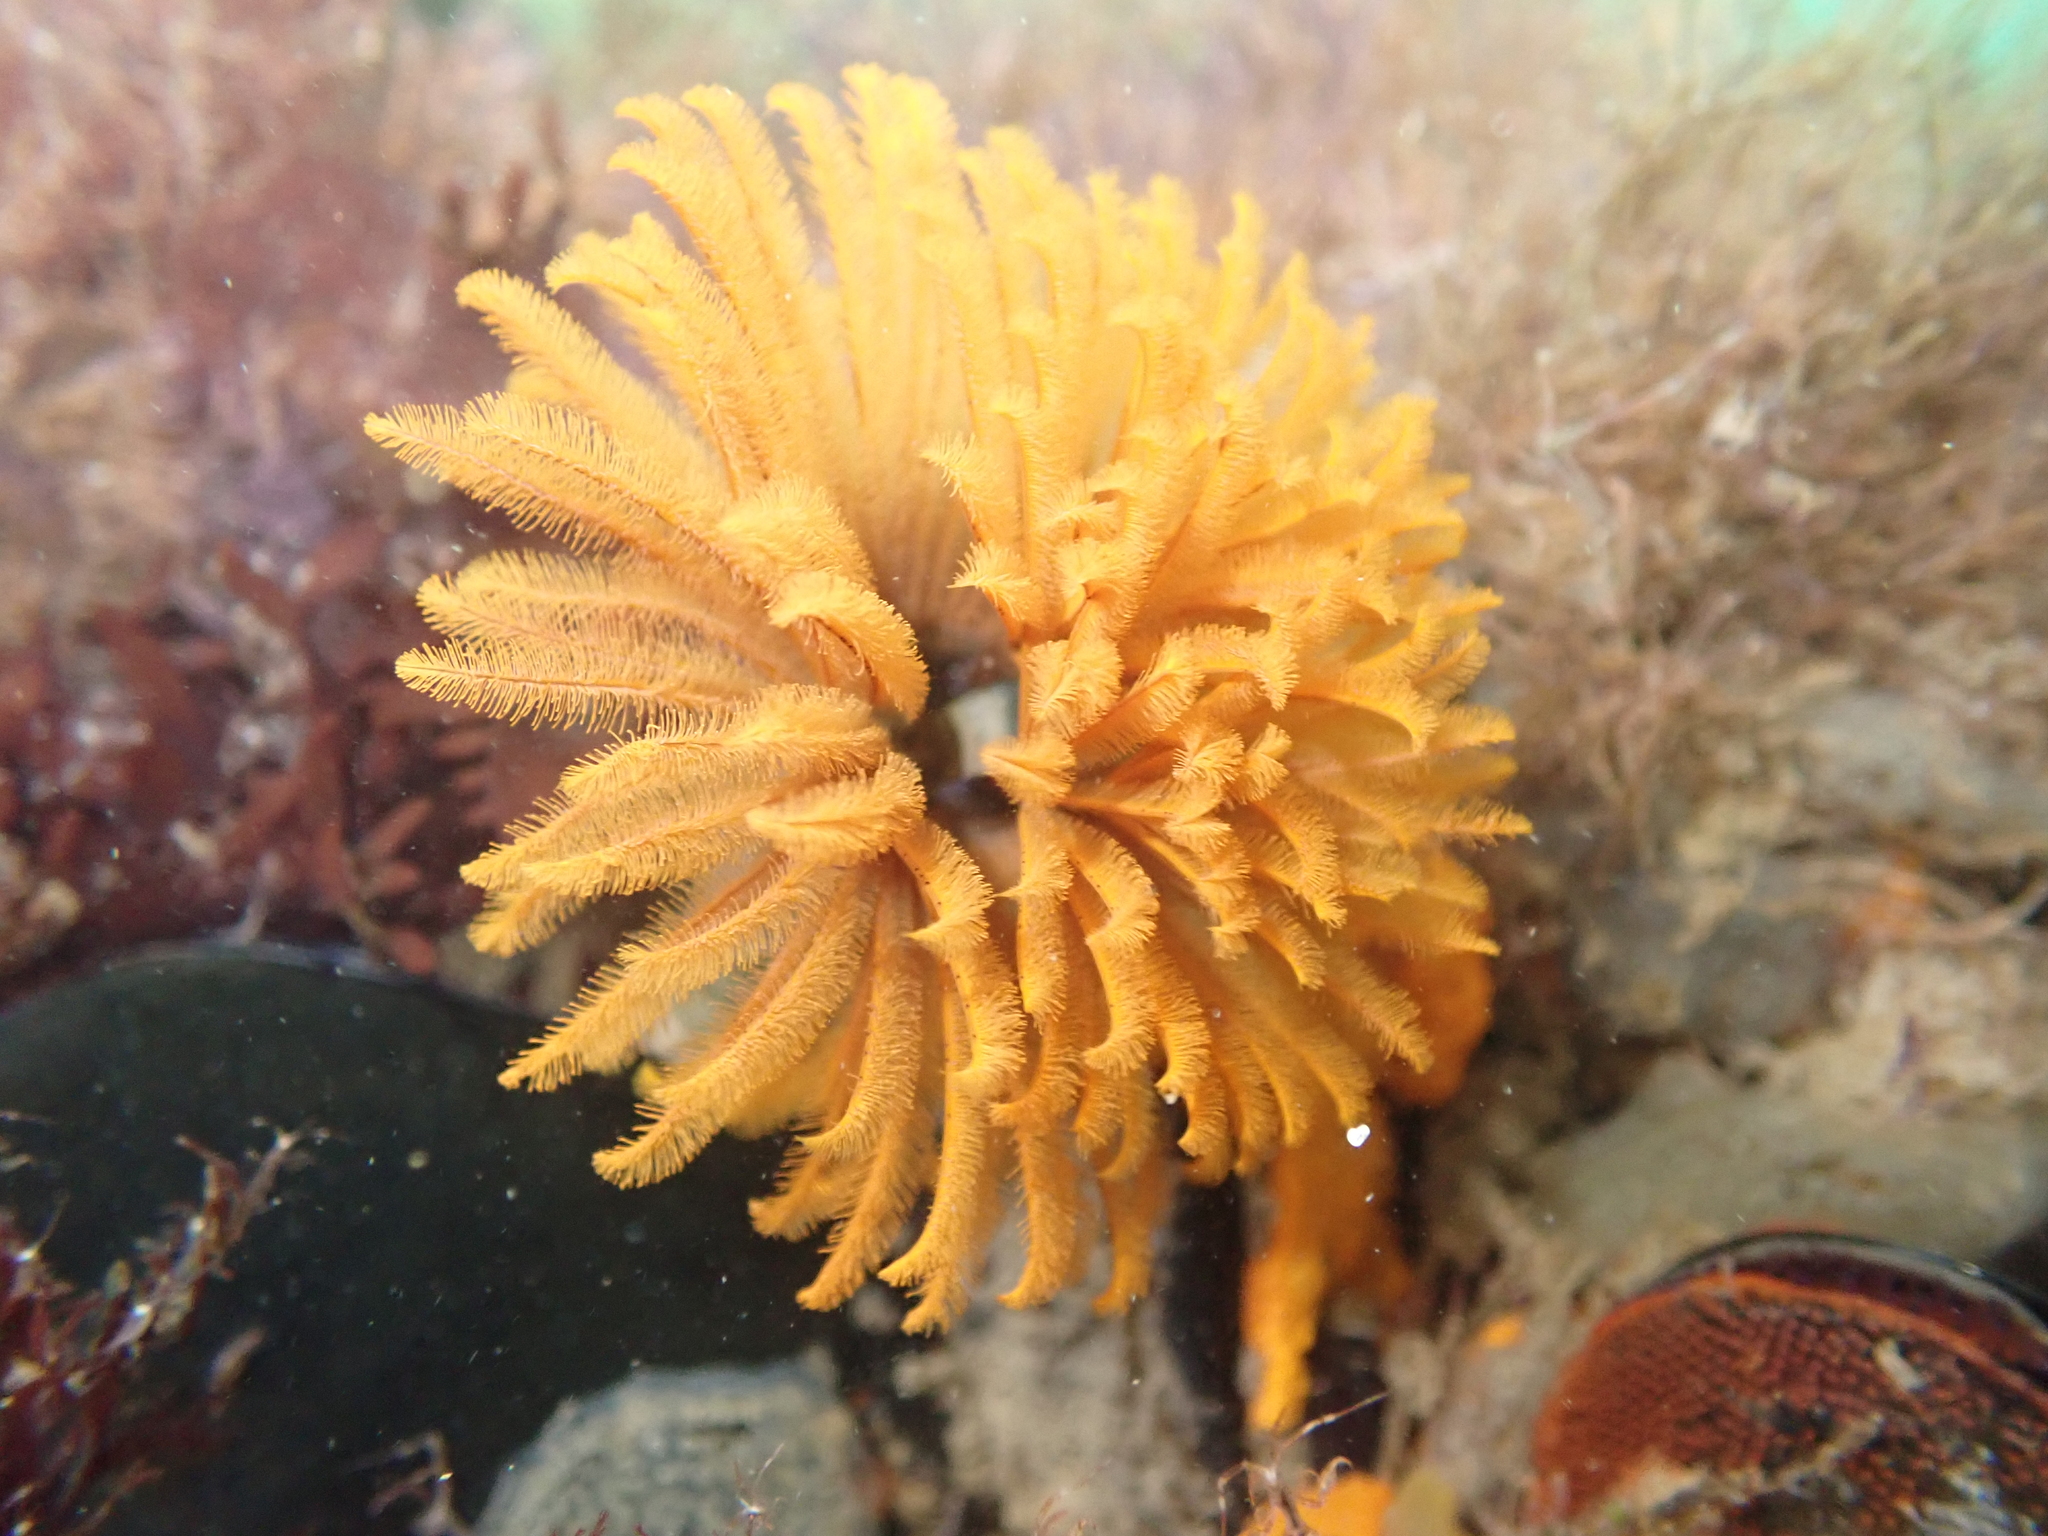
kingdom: Animalia
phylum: Annelida
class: Polychaeta
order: Sabellida
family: Sabellidae
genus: Eudistylia
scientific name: Eudistylia polymorpha
